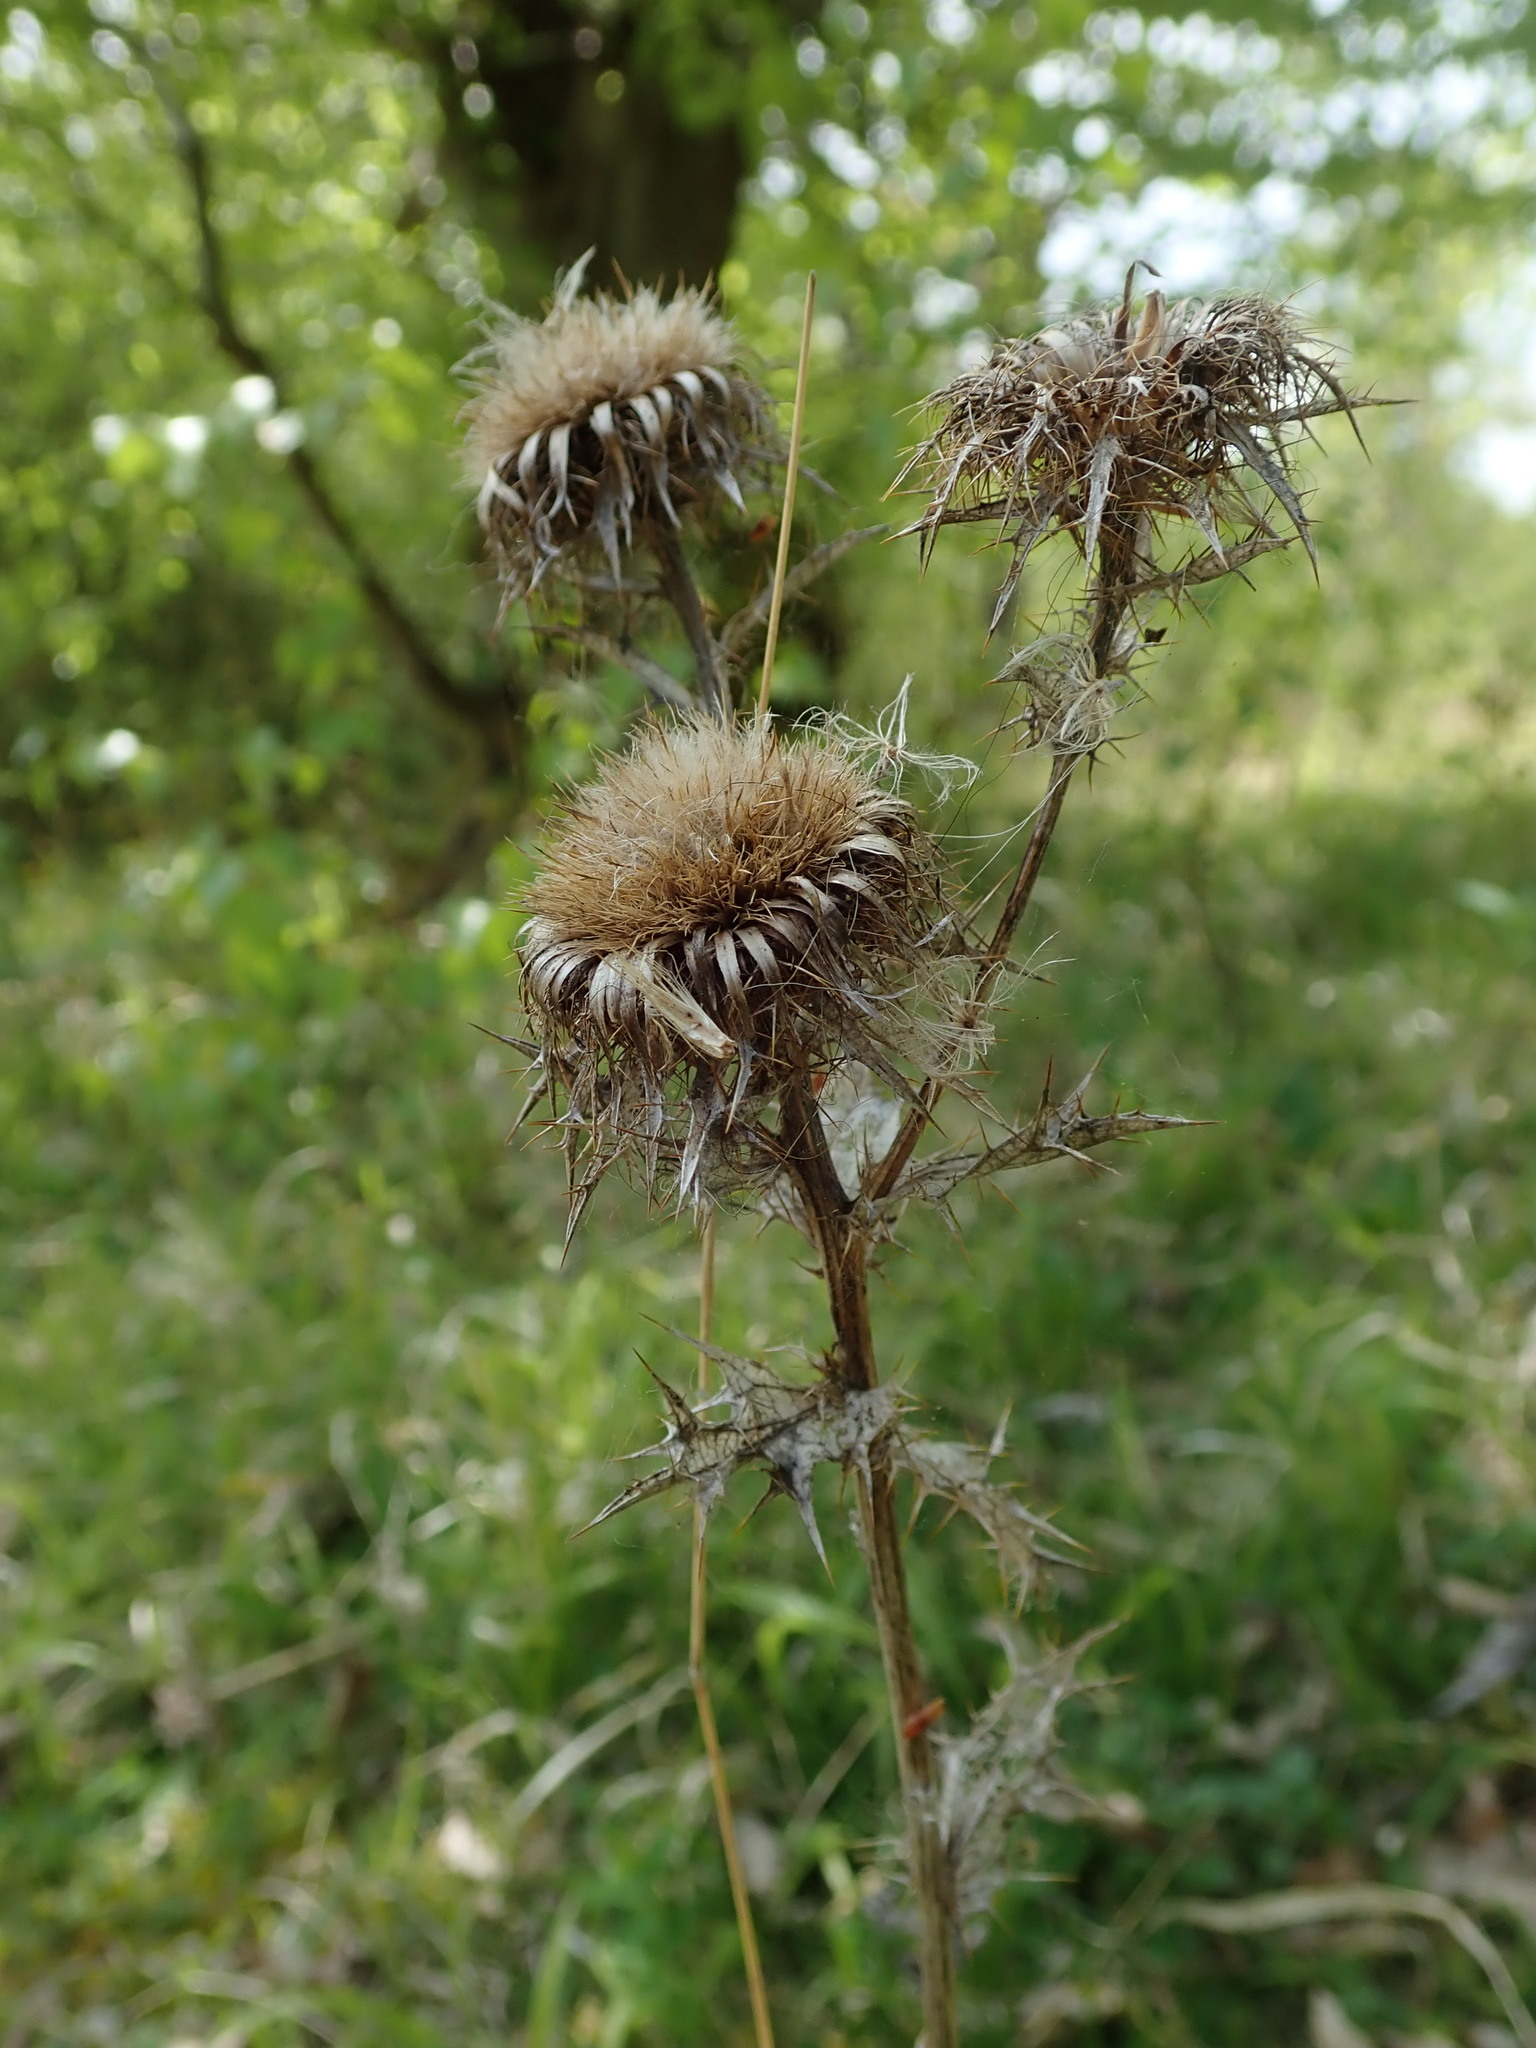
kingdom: Plantae
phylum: Tracheophyta
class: Magnoliopsida
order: Asterales
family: Asteraceae
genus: Carlina
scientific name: Carlina vulgaris
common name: Carline thistle
